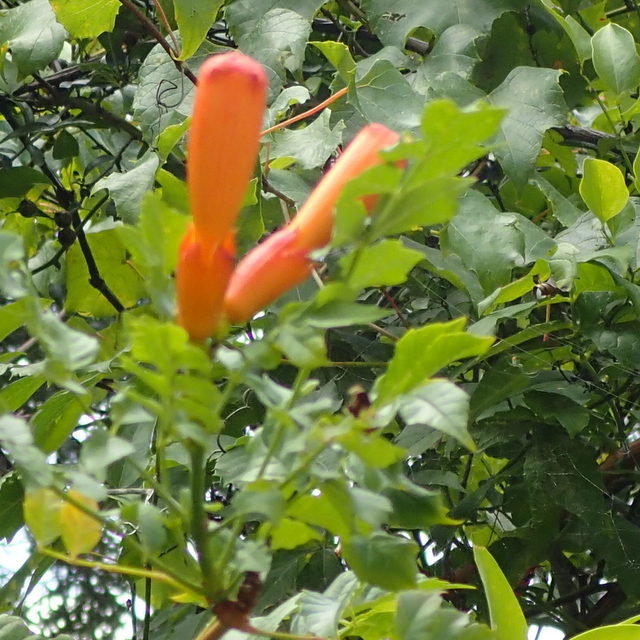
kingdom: Plantae
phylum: Tracheophyta
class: Magnoliopsida
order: Lamiales
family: Bignoniaceae
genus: Campsis
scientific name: Campsis radicans
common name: Trumpet-creeper
